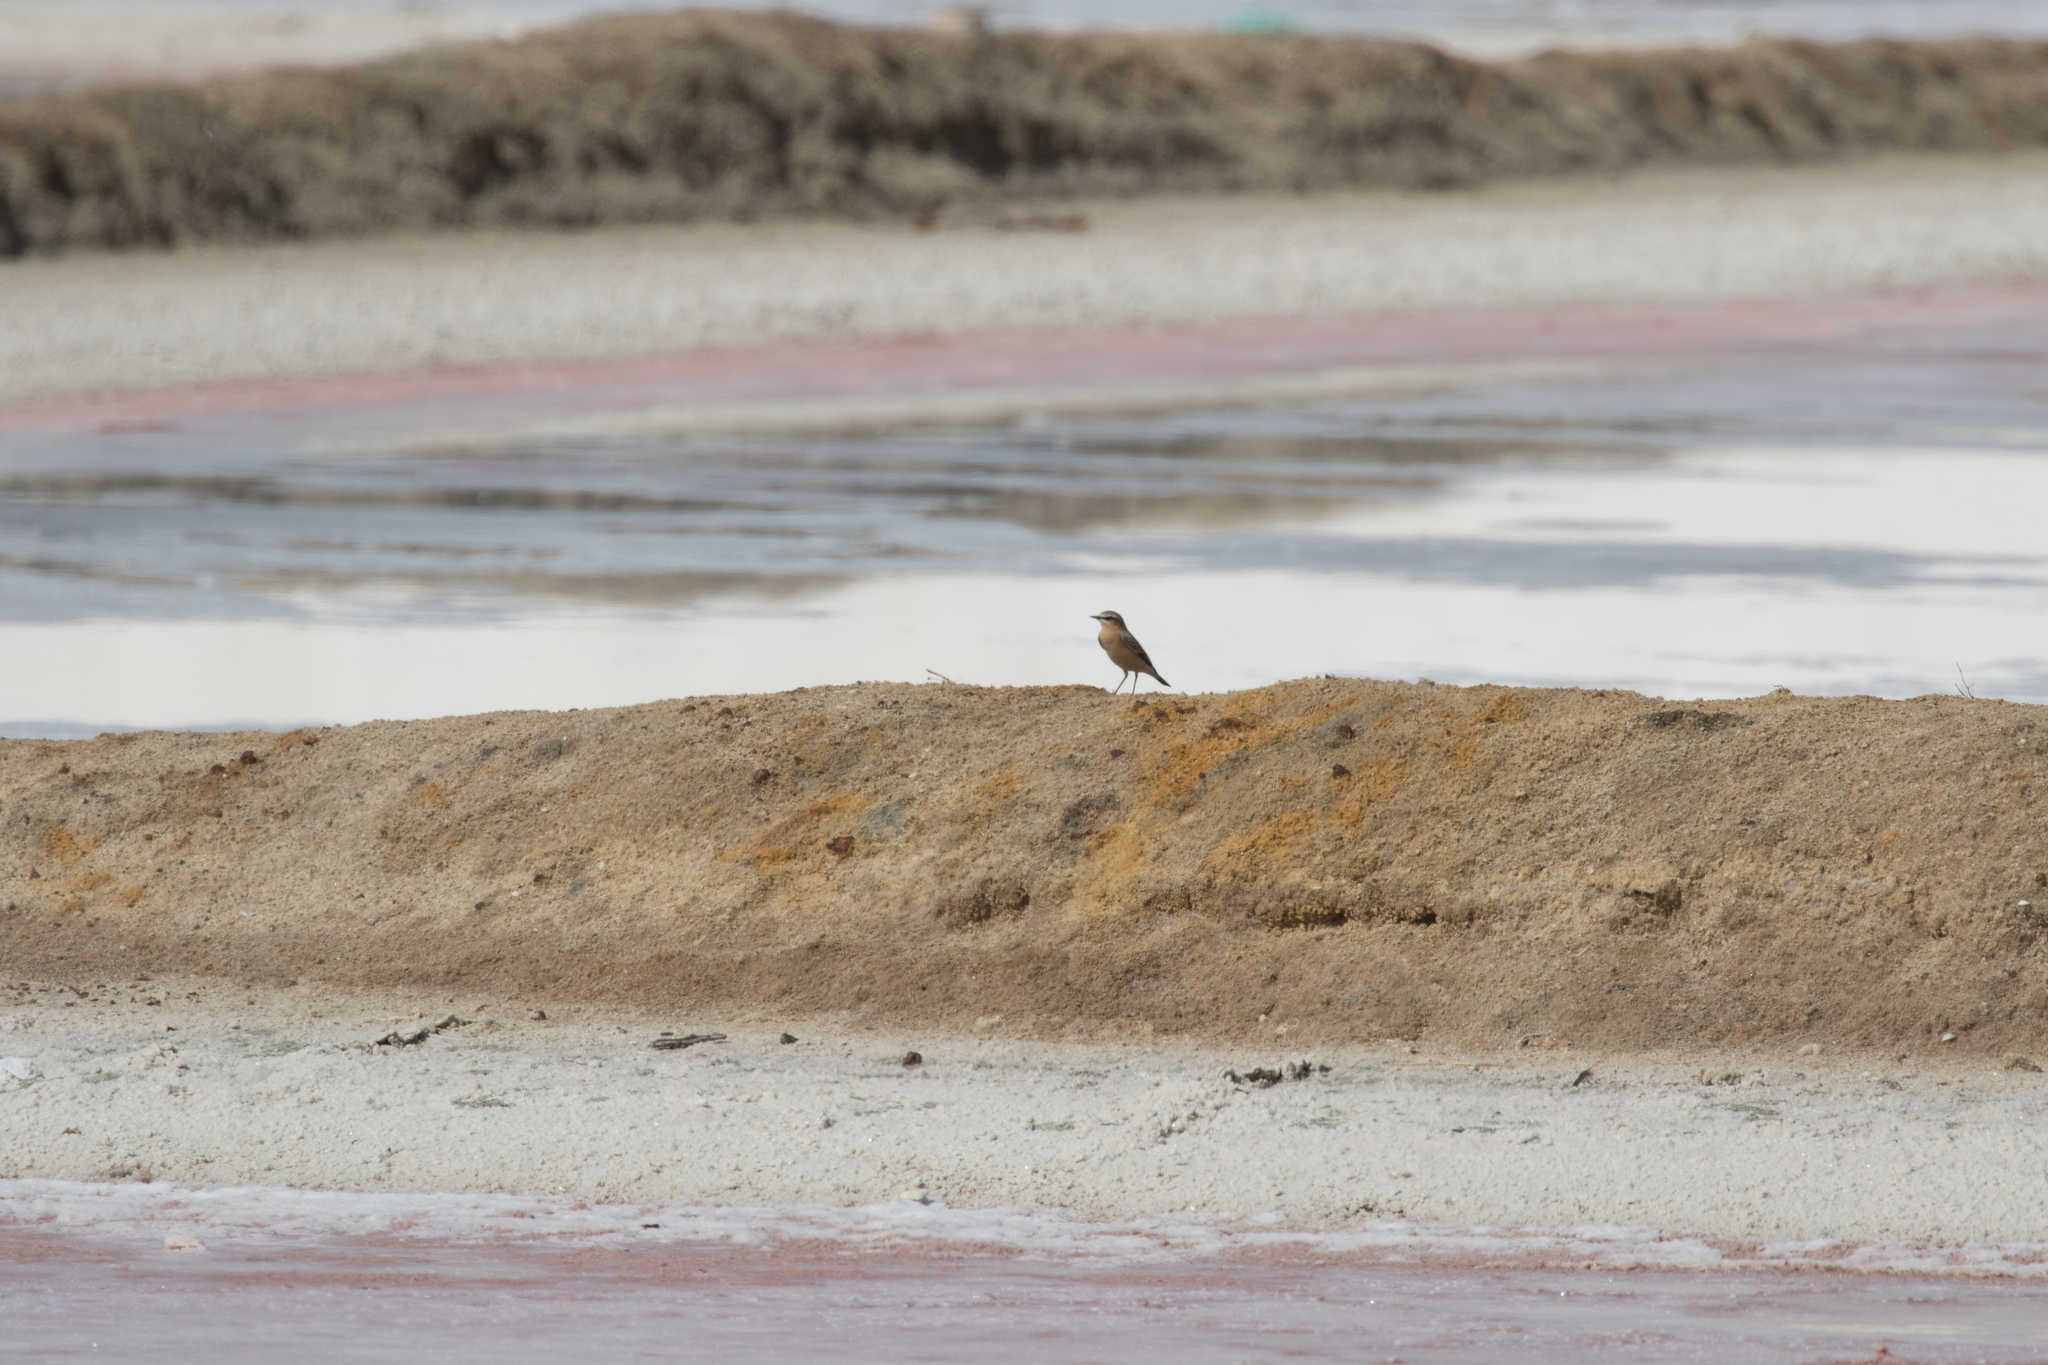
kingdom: Animalia
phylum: Chordata
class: Aves
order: Passeriformes
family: Muscicapidae
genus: Oenanthe
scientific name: Oenanthe oenanthe
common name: Northern wheatear
